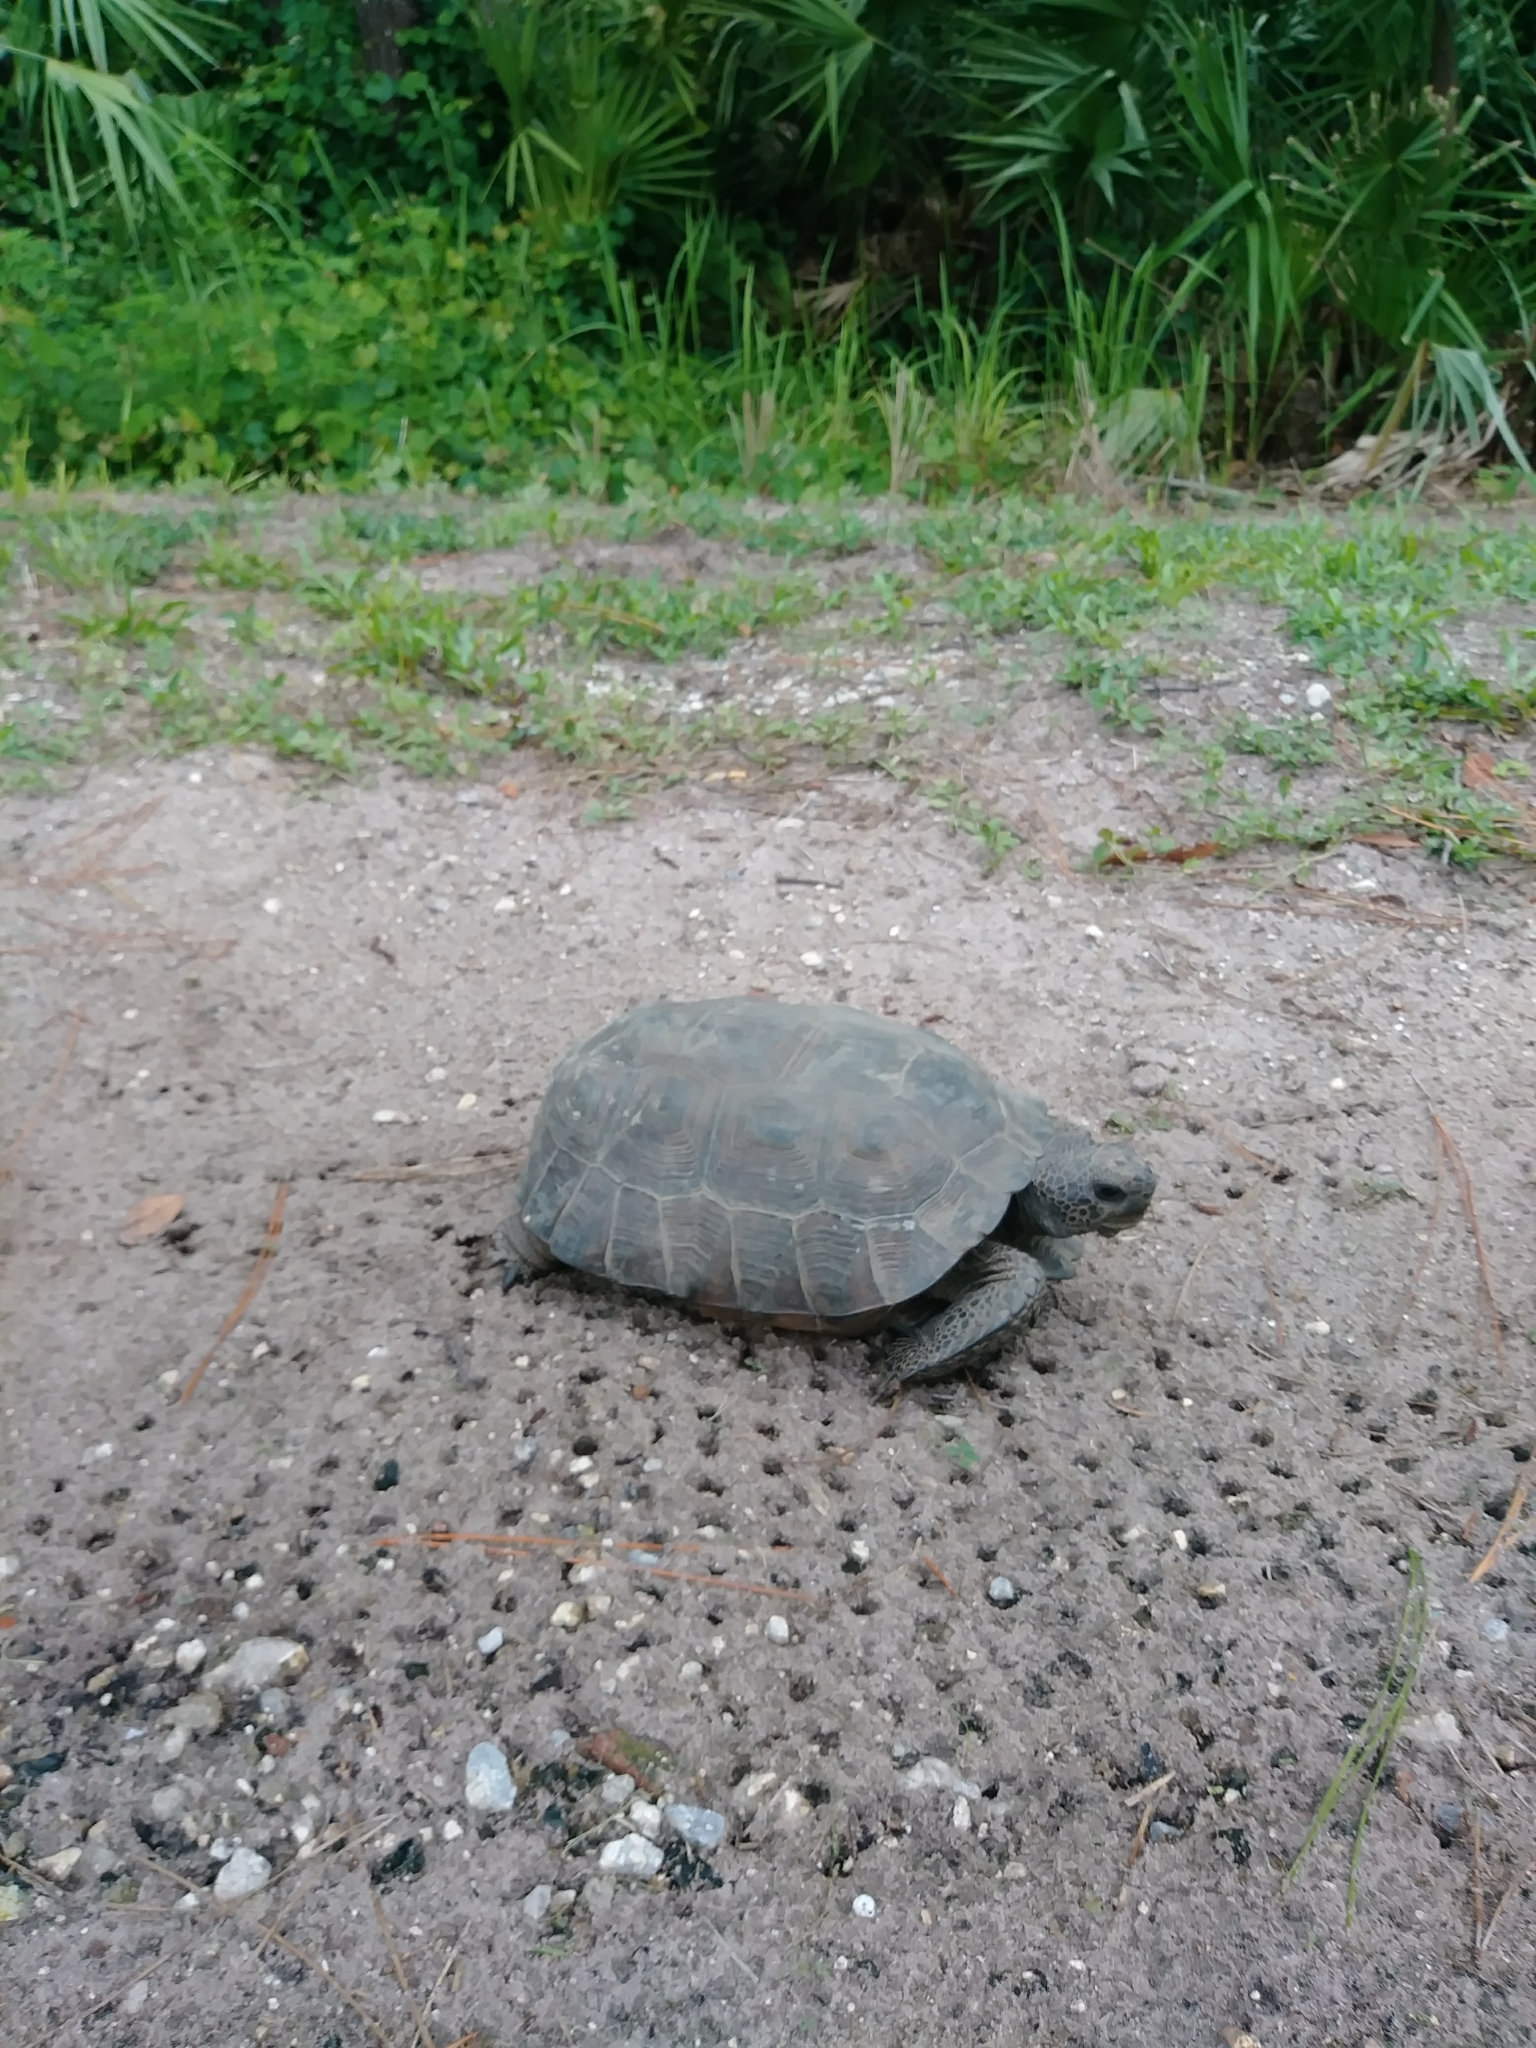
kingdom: Animalia
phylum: Chordata
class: Testudines
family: Testudinidae
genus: Gopherus
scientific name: Gopherus polyphemus
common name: Florida gopher tortoise
